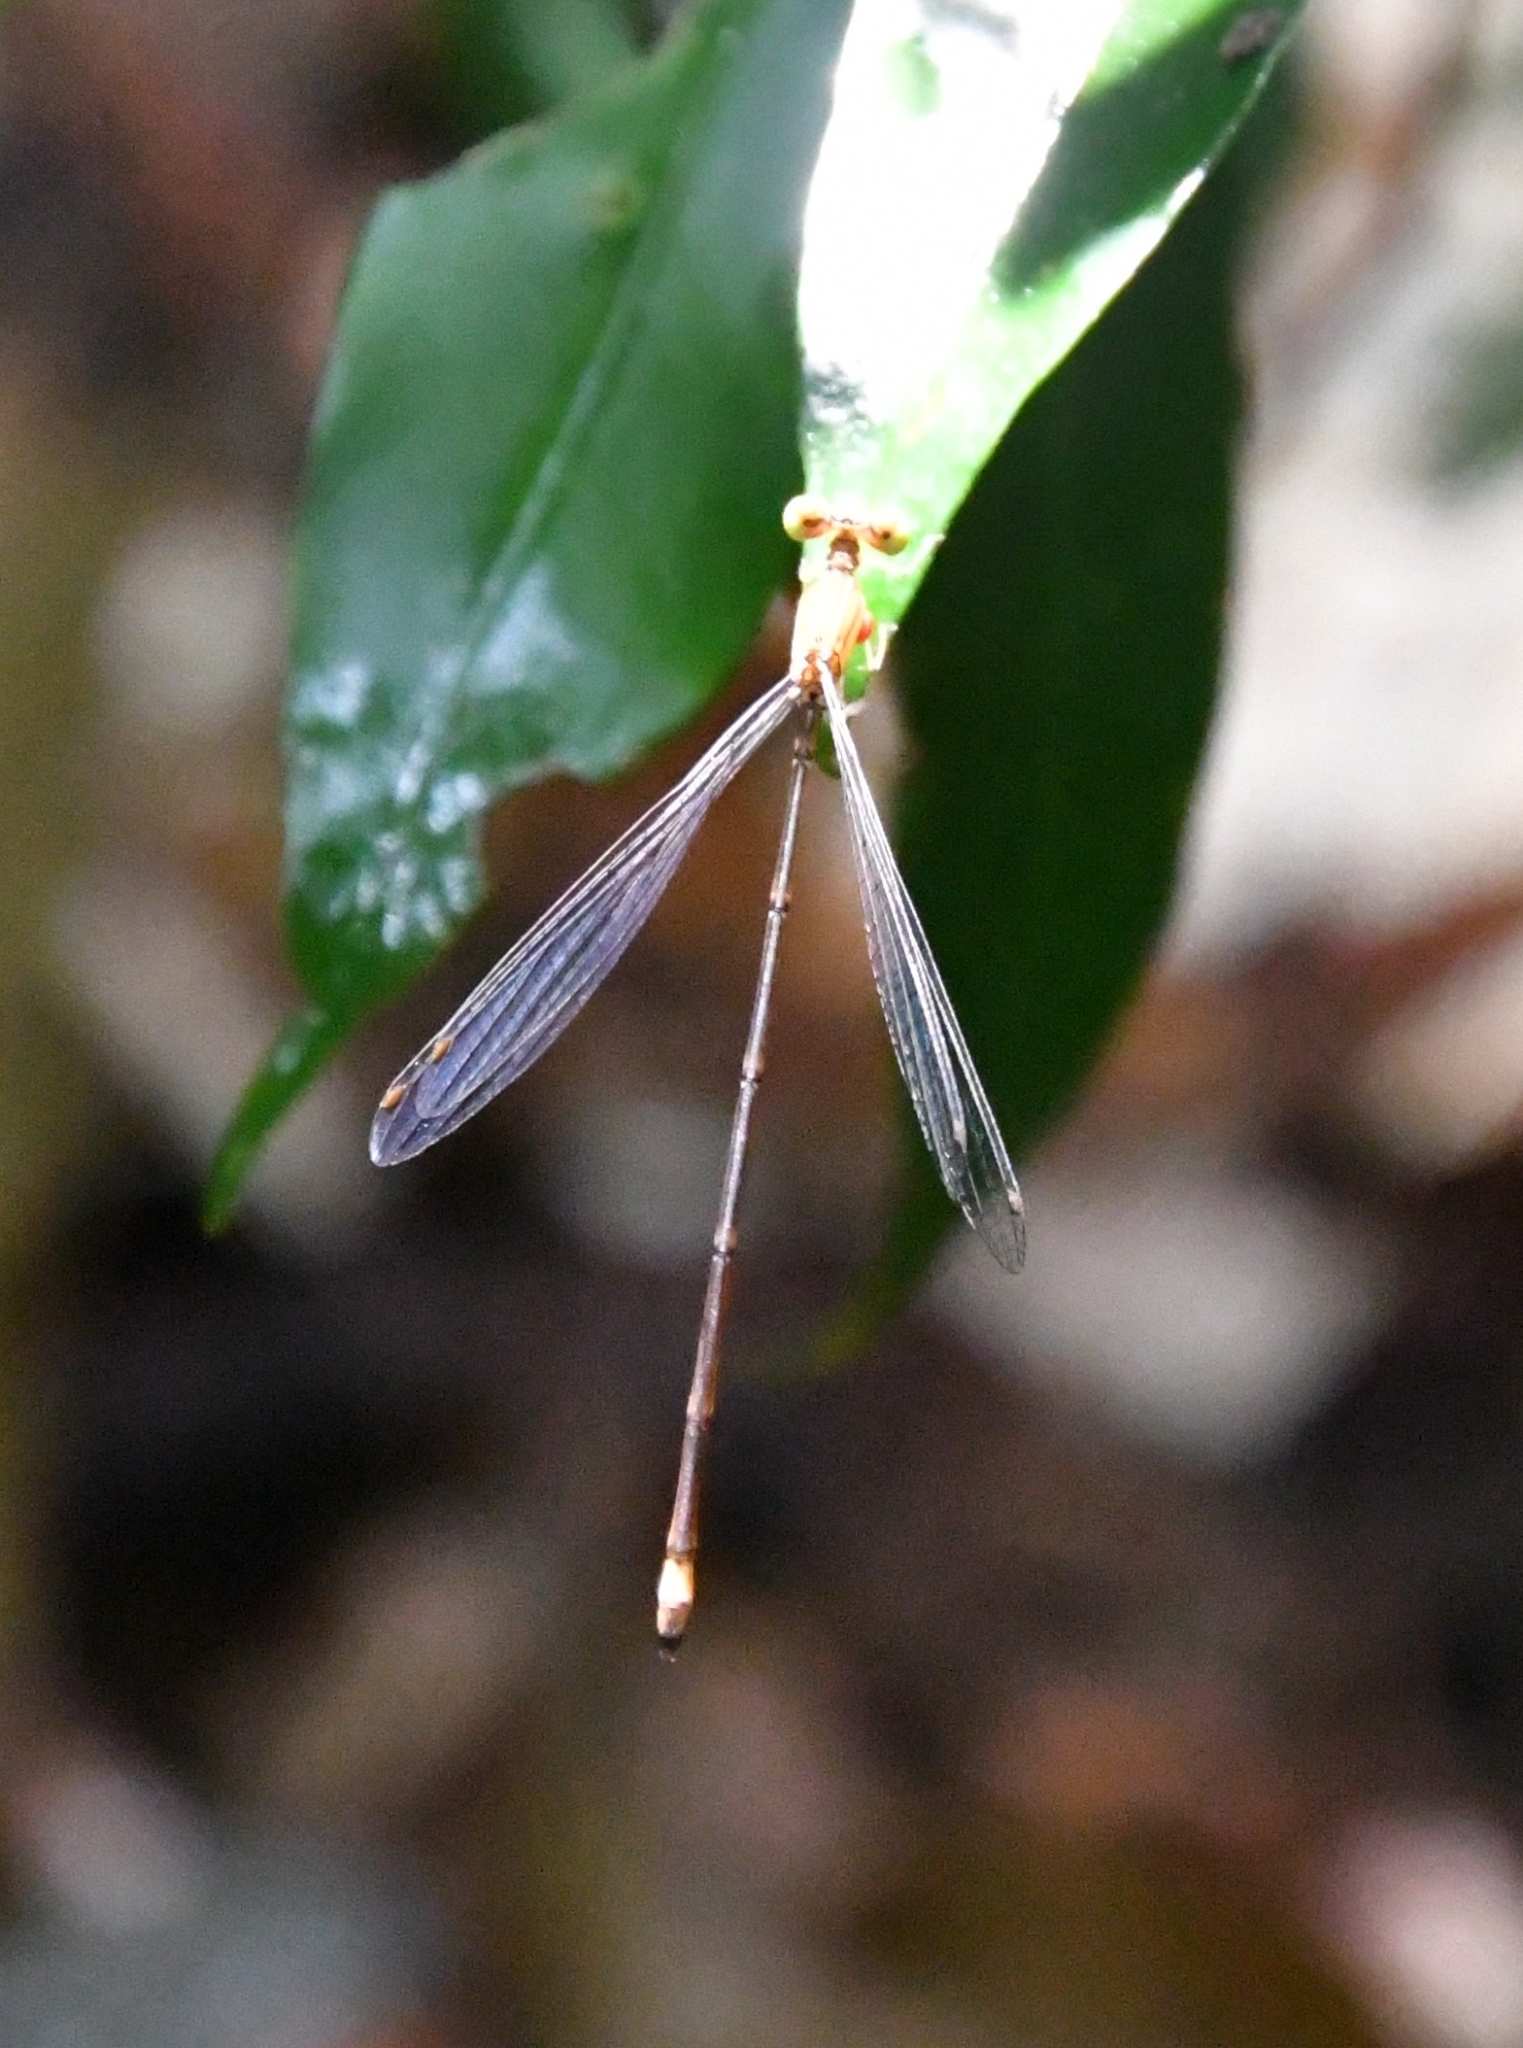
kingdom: Animalia
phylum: Arthropoda
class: Insecta
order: Odonata
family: Platycnemididae
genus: Coeliccia
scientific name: Coeliccia kazukoae
